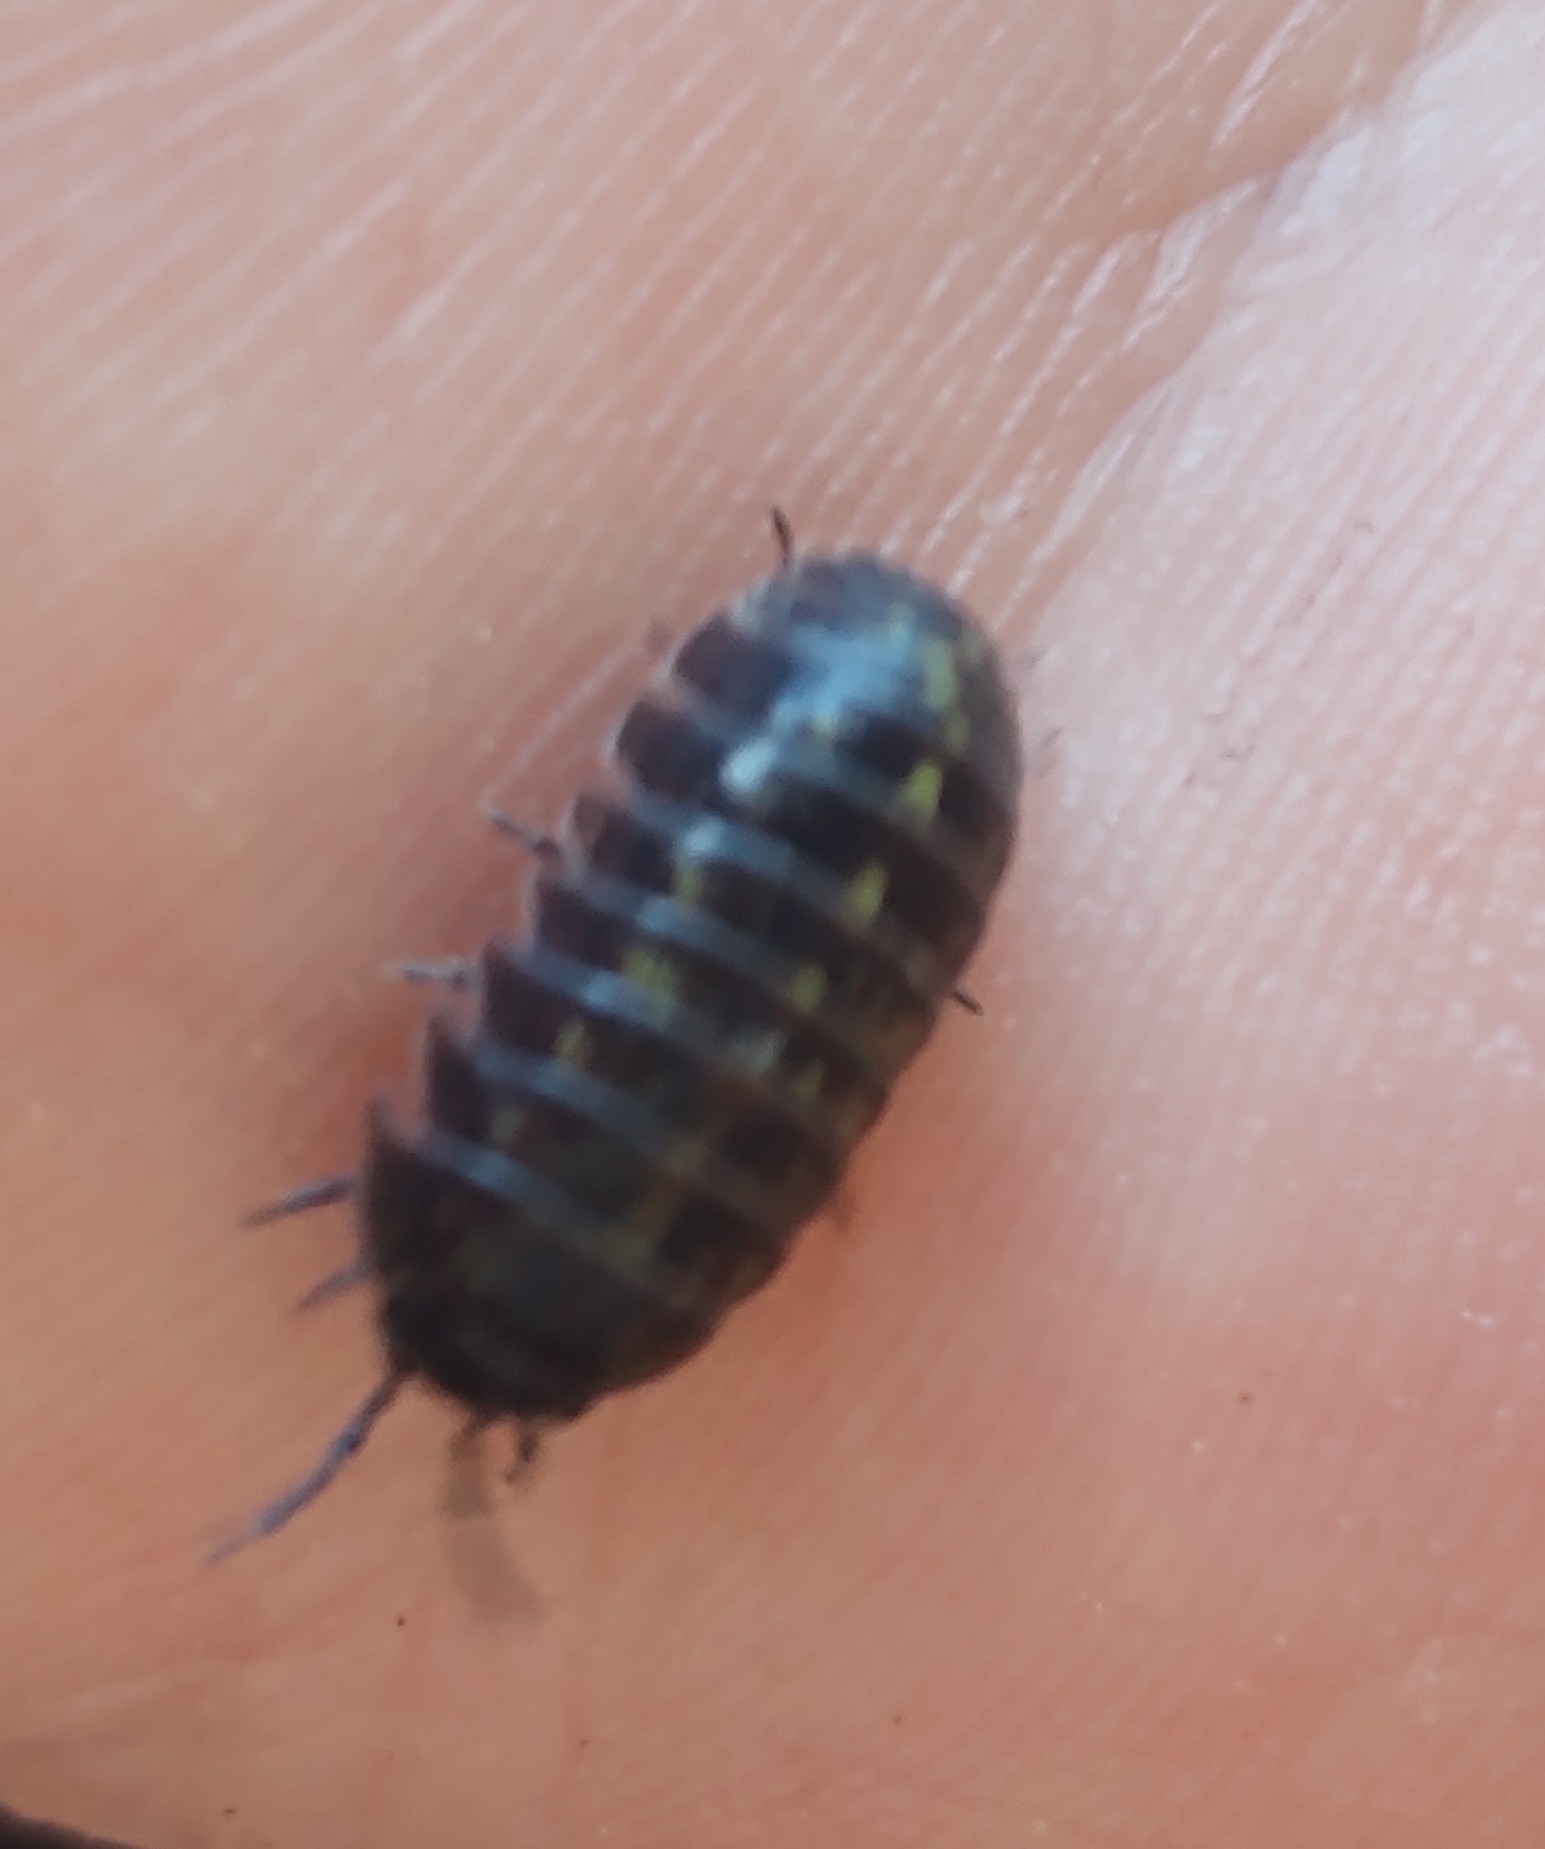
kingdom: Animalia
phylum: Arthropoda
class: Malacostraca
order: Isopoda
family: Armadillidiidae
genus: Armadillidium
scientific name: Armadillidium vulgare
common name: Common pill woodlouse
